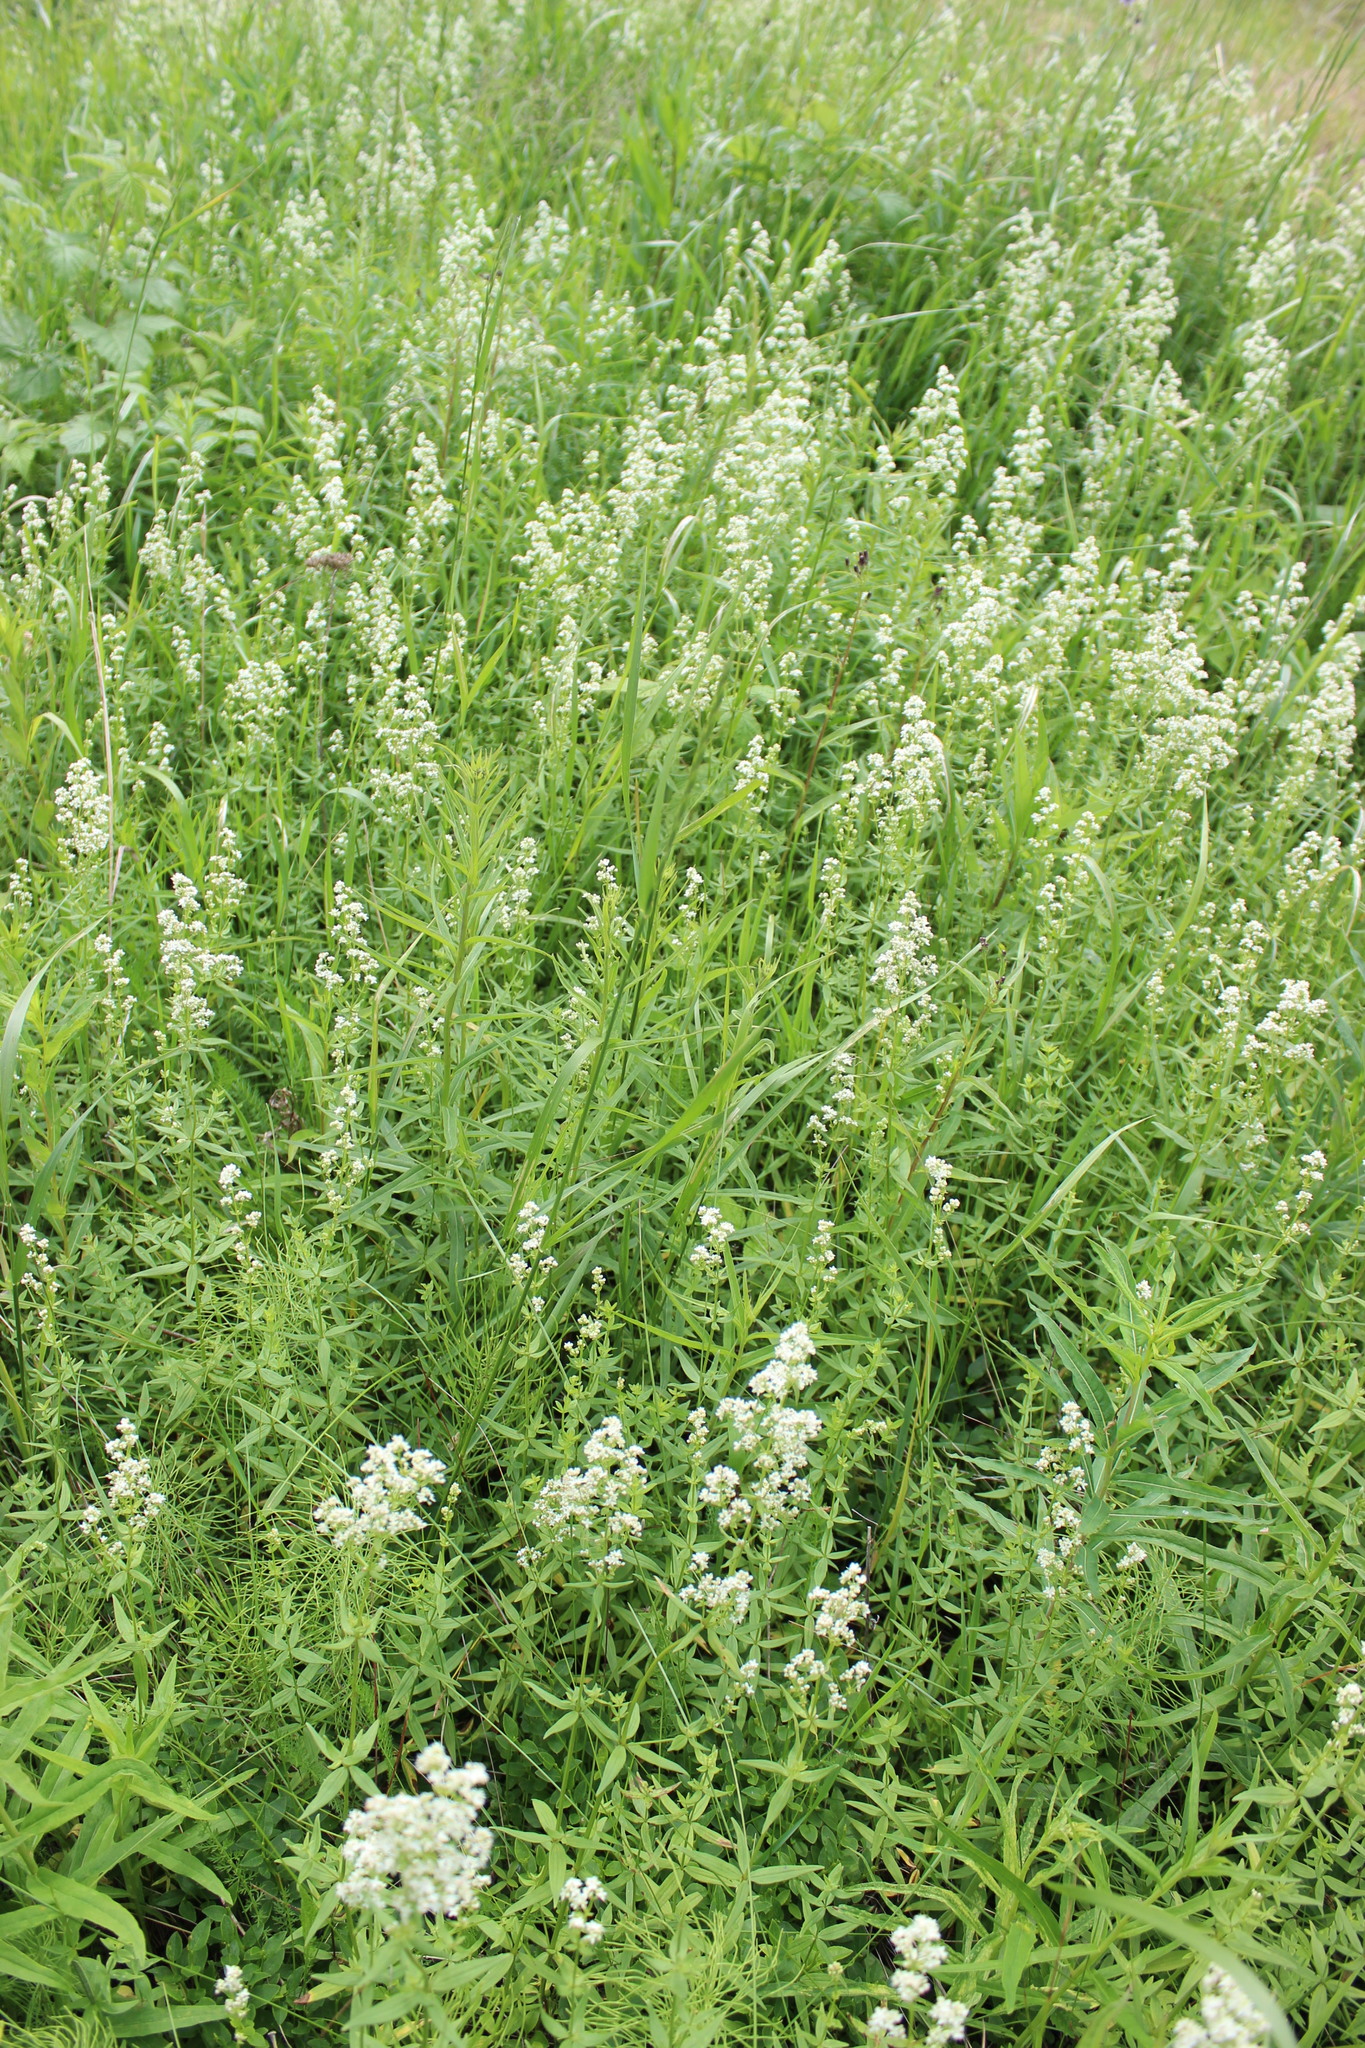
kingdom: Plantae
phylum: Tracheophyta
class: Magnoliopsida
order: Gentianales
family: Rubiaceae
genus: Galium
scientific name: Galium boreale
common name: Northern bedstraw
